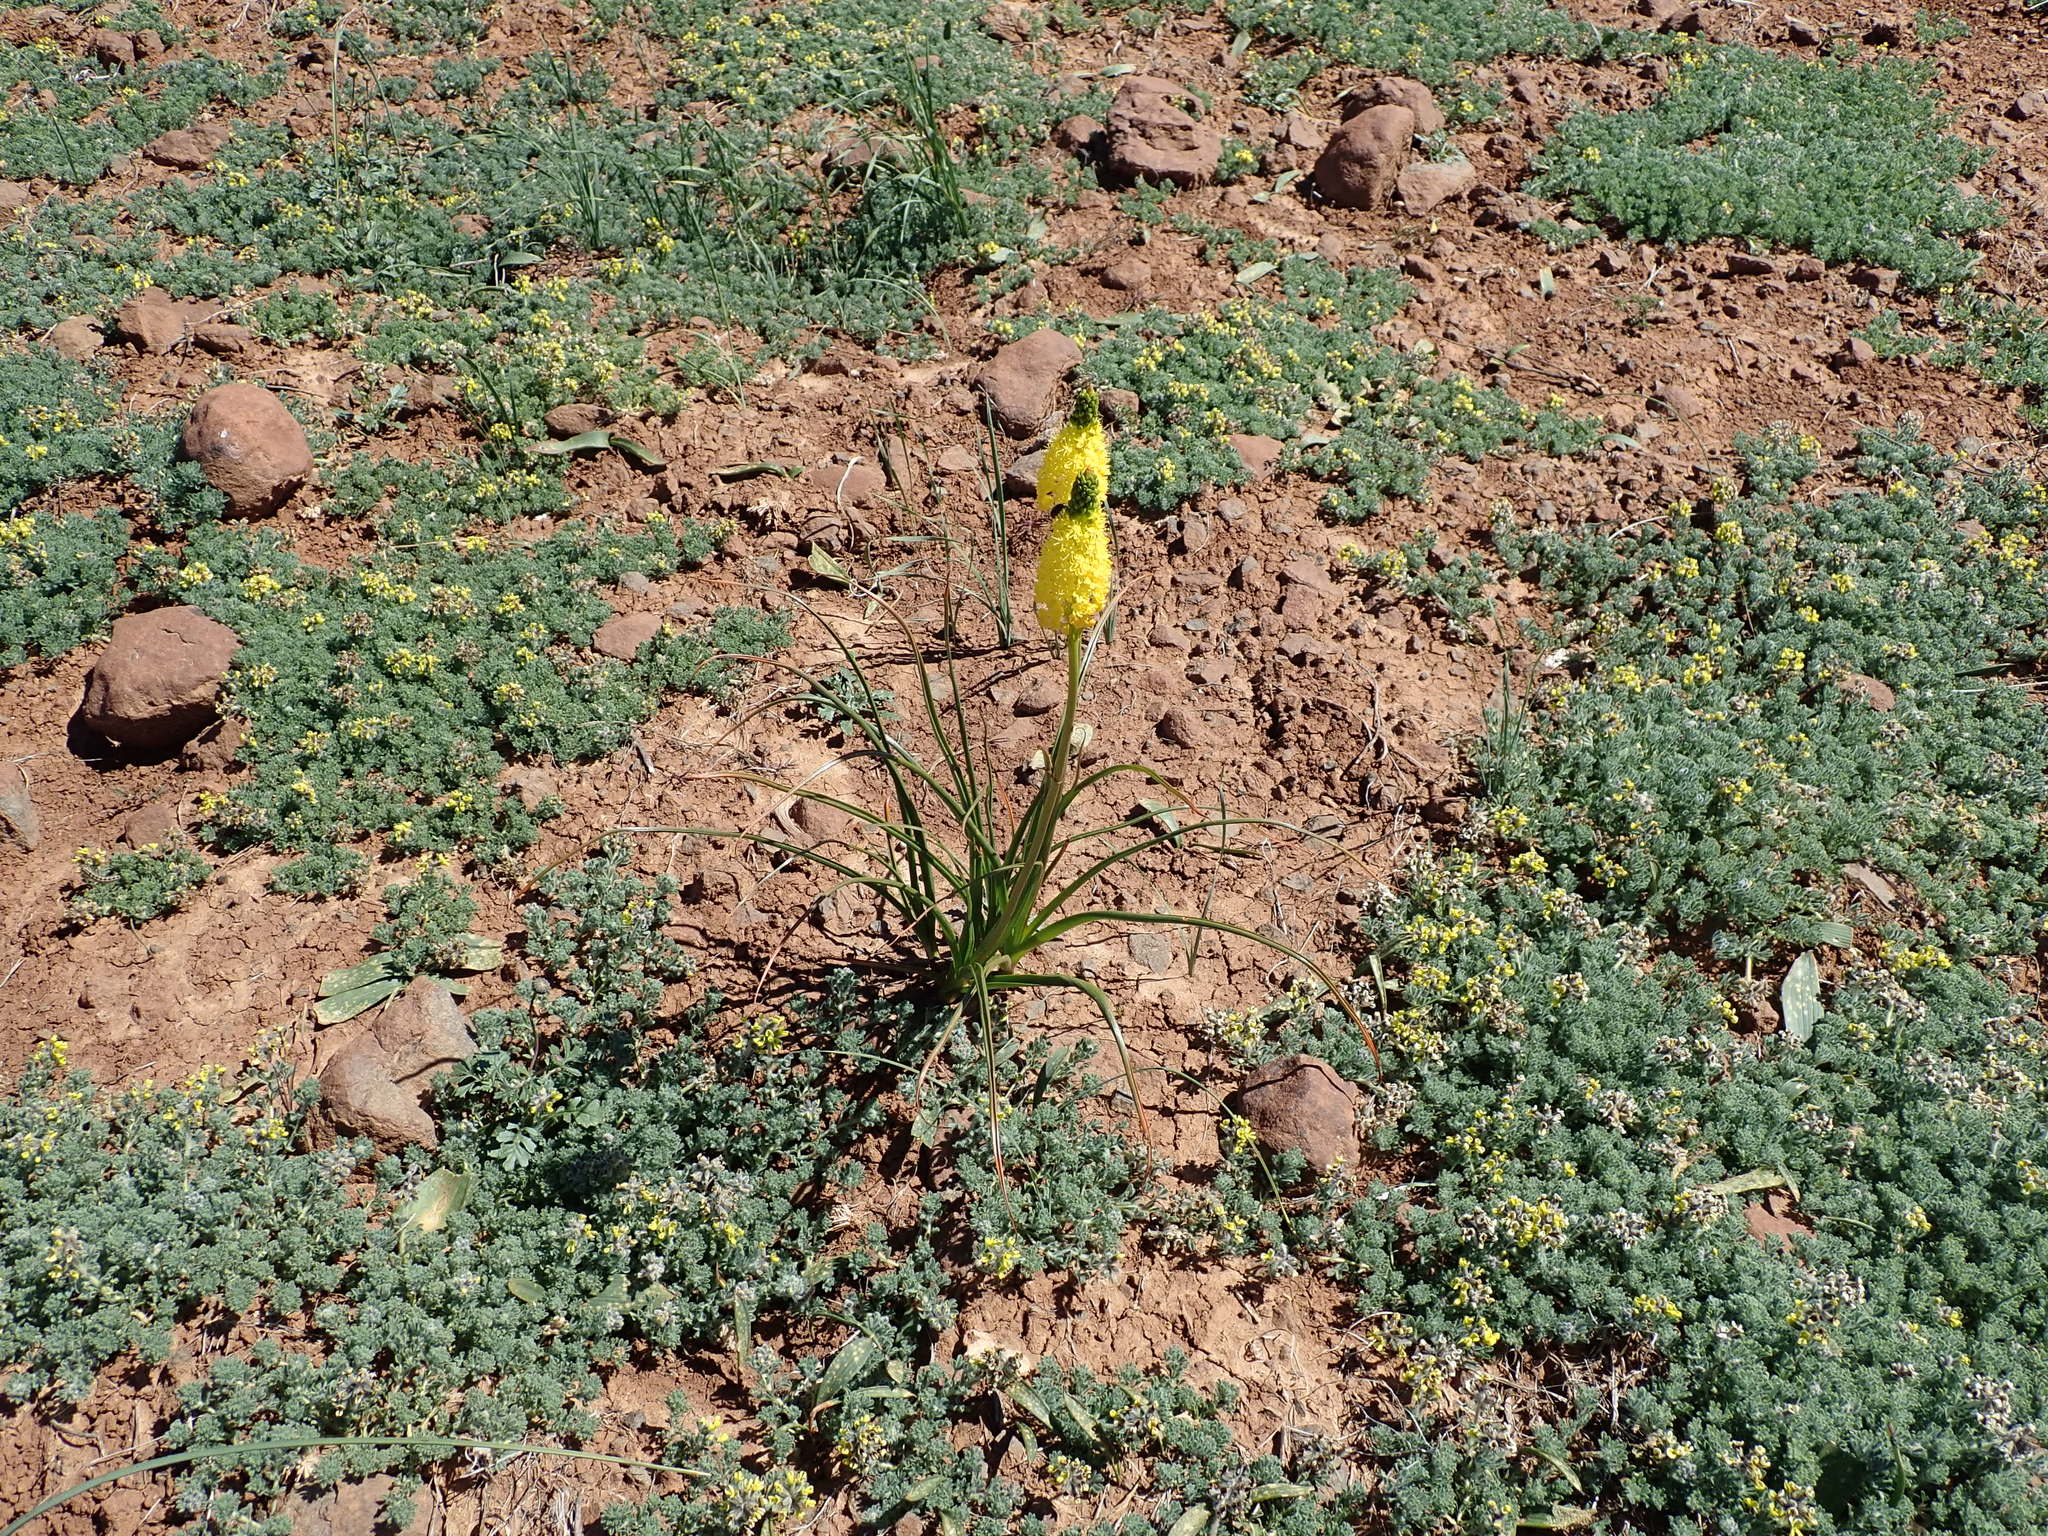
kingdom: Plantae
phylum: Tracheophyta
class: Liliopsida
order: Asparagales
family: Asphodelaceae
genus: Bulbinella
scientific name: Bulbinella nutans
